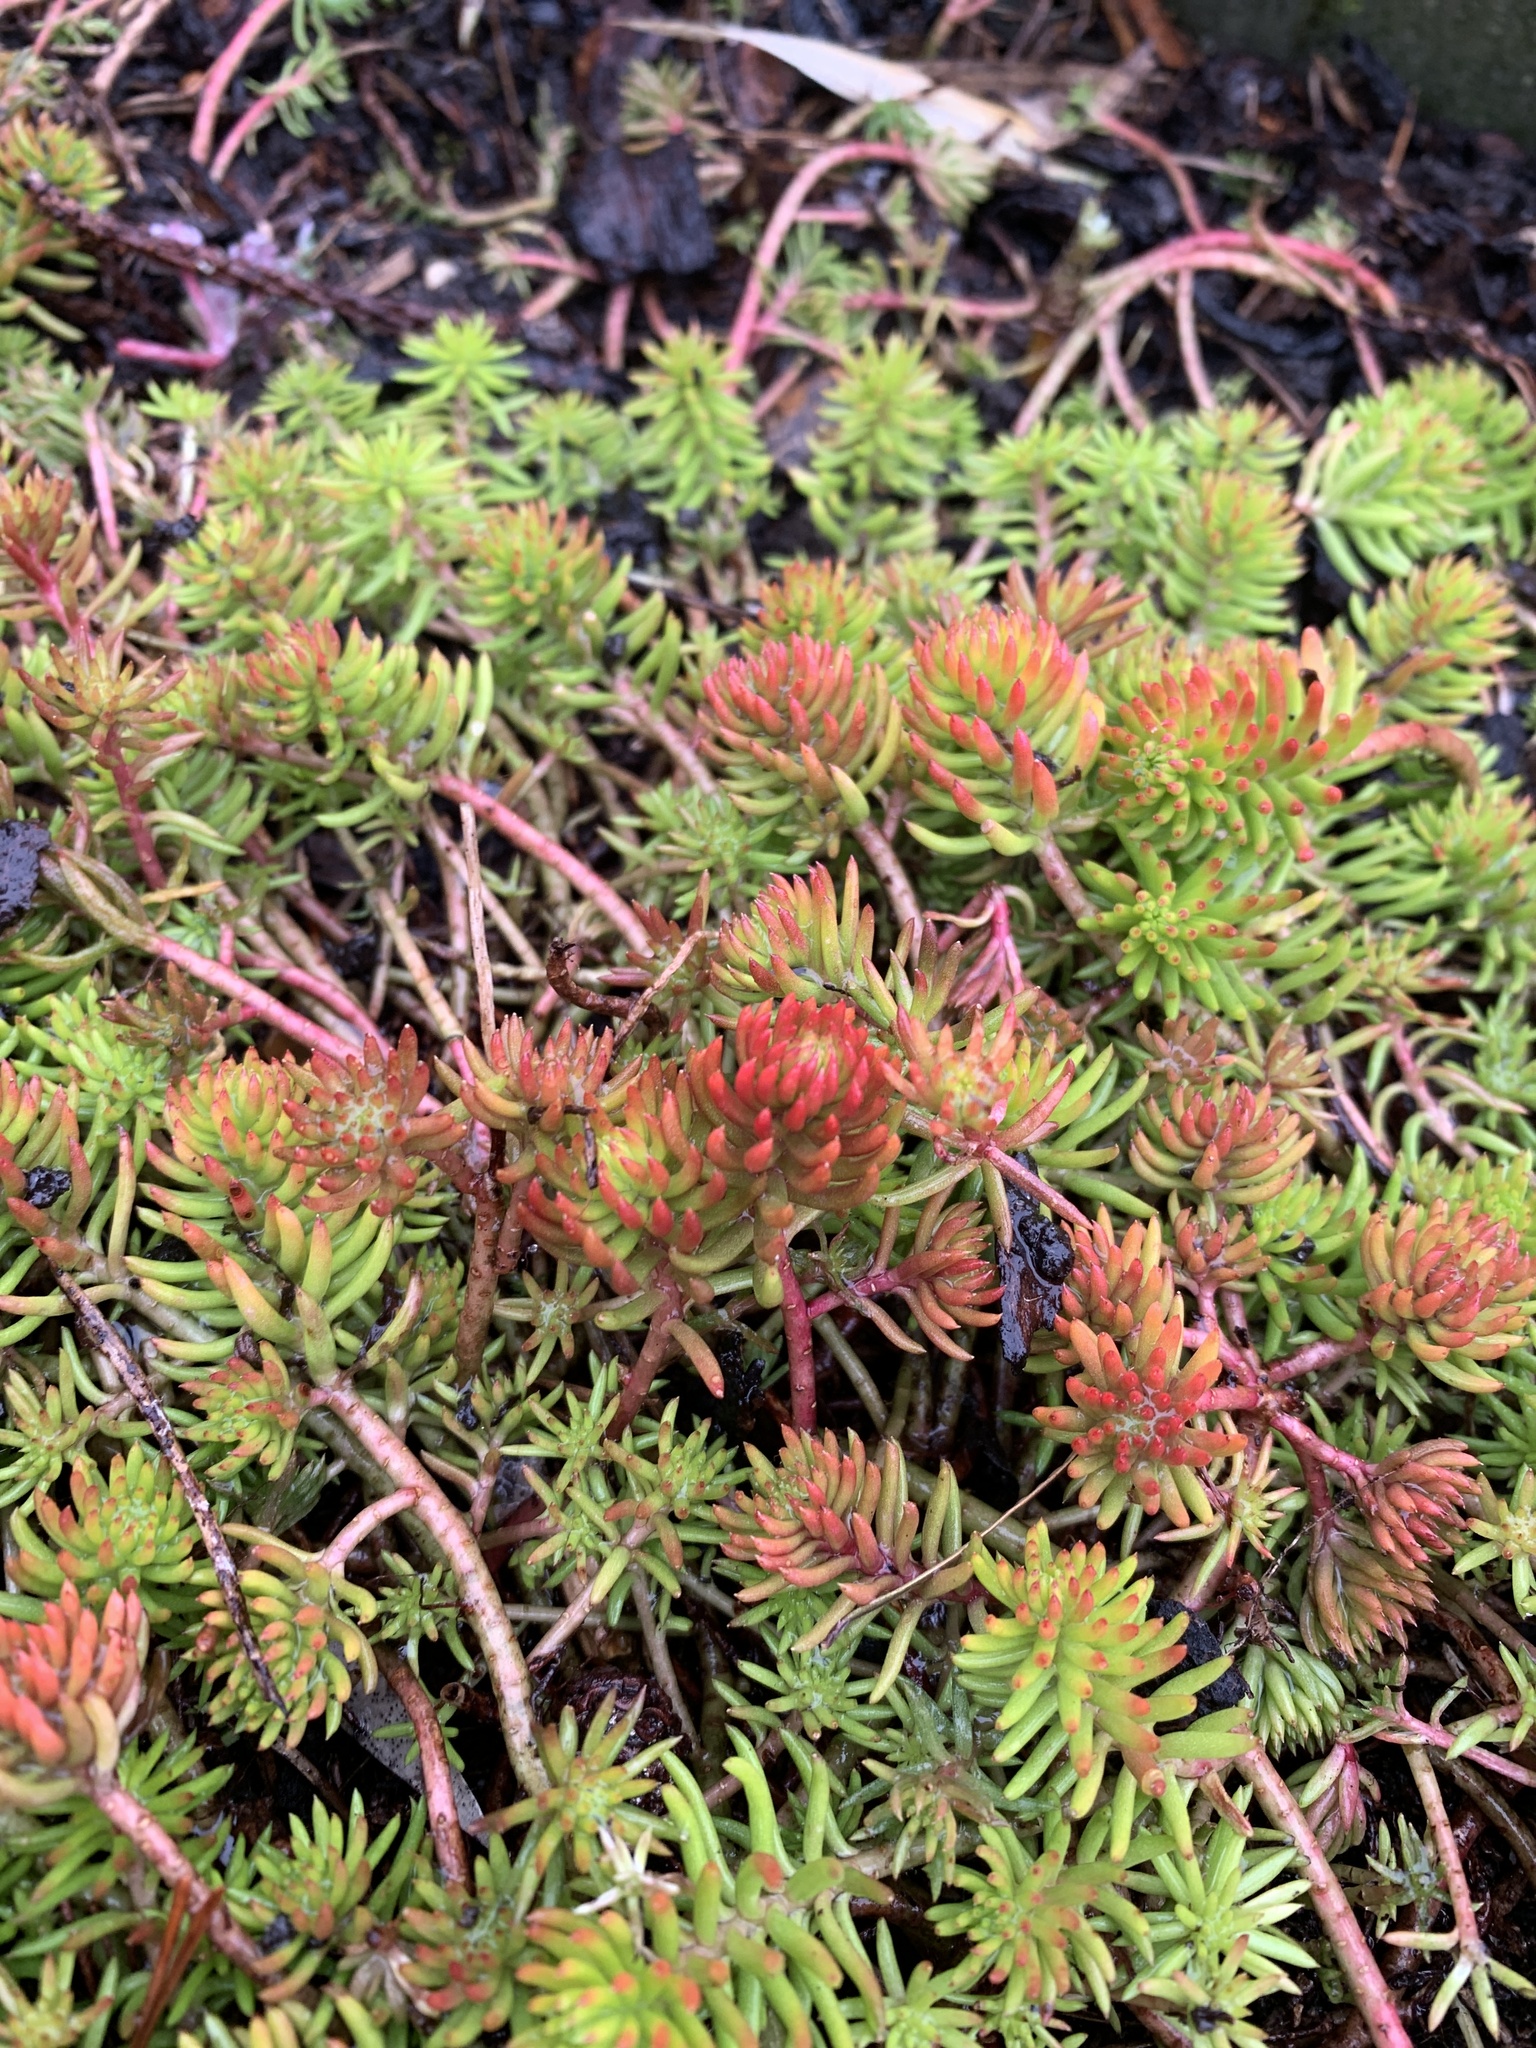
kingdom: Plantae
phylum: Tracheophyta
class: Magnoliopsida
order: Saxifragales
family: Crassulaceae
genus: Petrosedum
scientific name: Petrosedum rupestre
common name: Jenny's stonecrop
